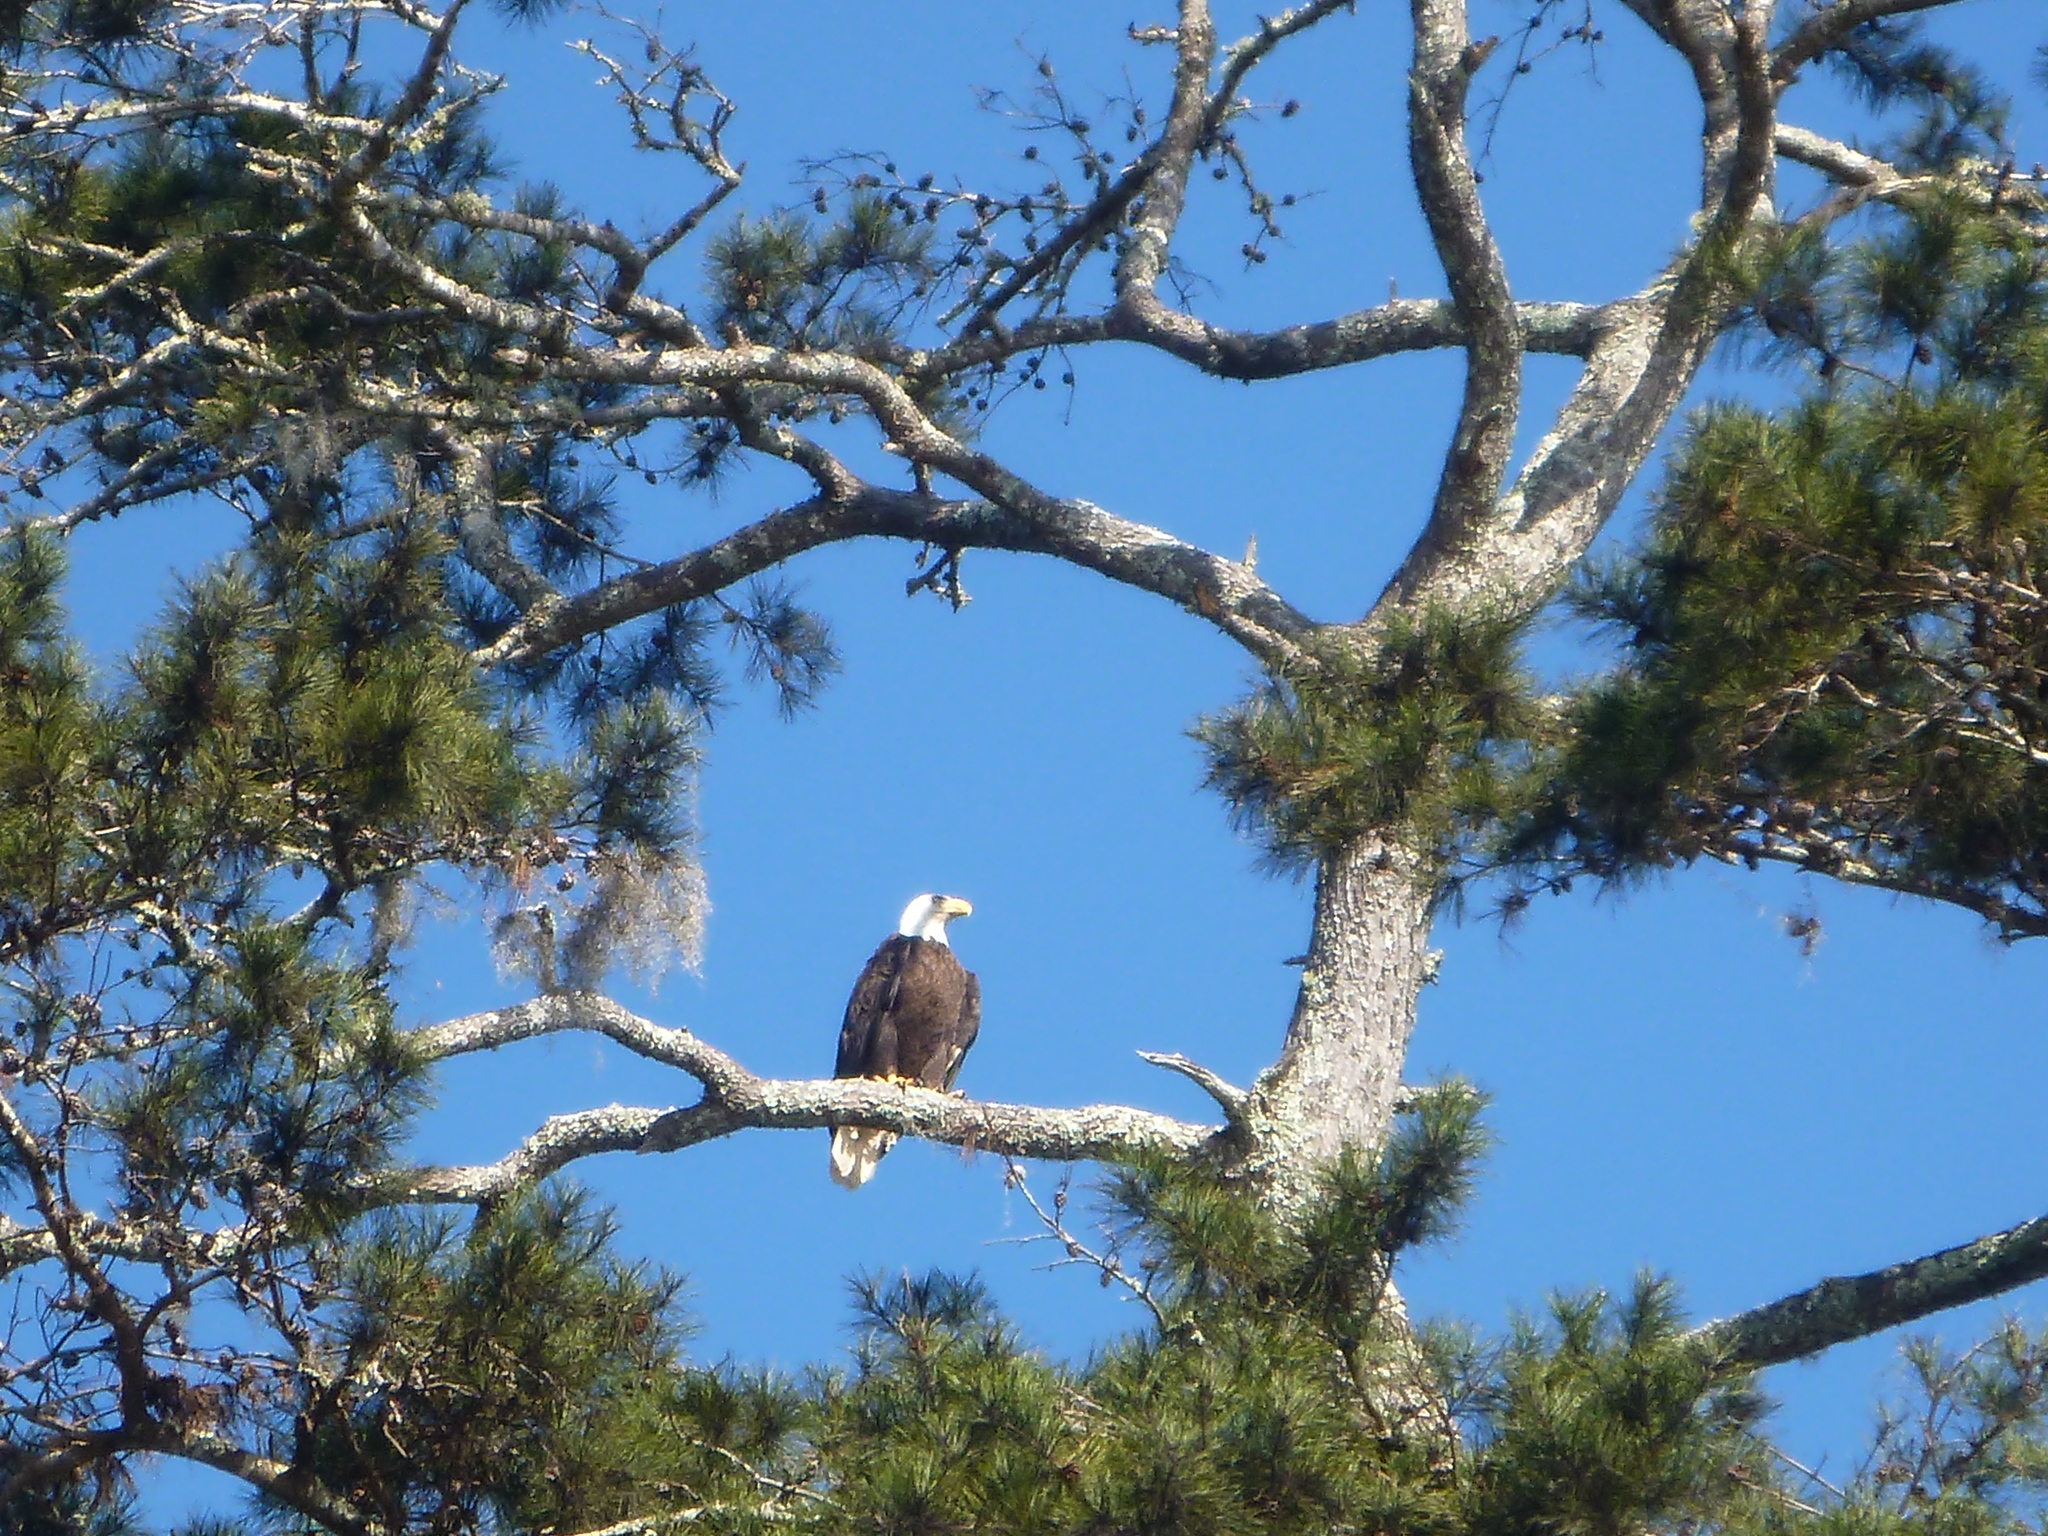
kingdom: Animalia
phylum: Chordata
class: Aves
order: Accipitriformes
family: Accipitridae
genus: Haliaeetus
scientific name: Haliaeetus leucocephalus
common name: Bald eagle
